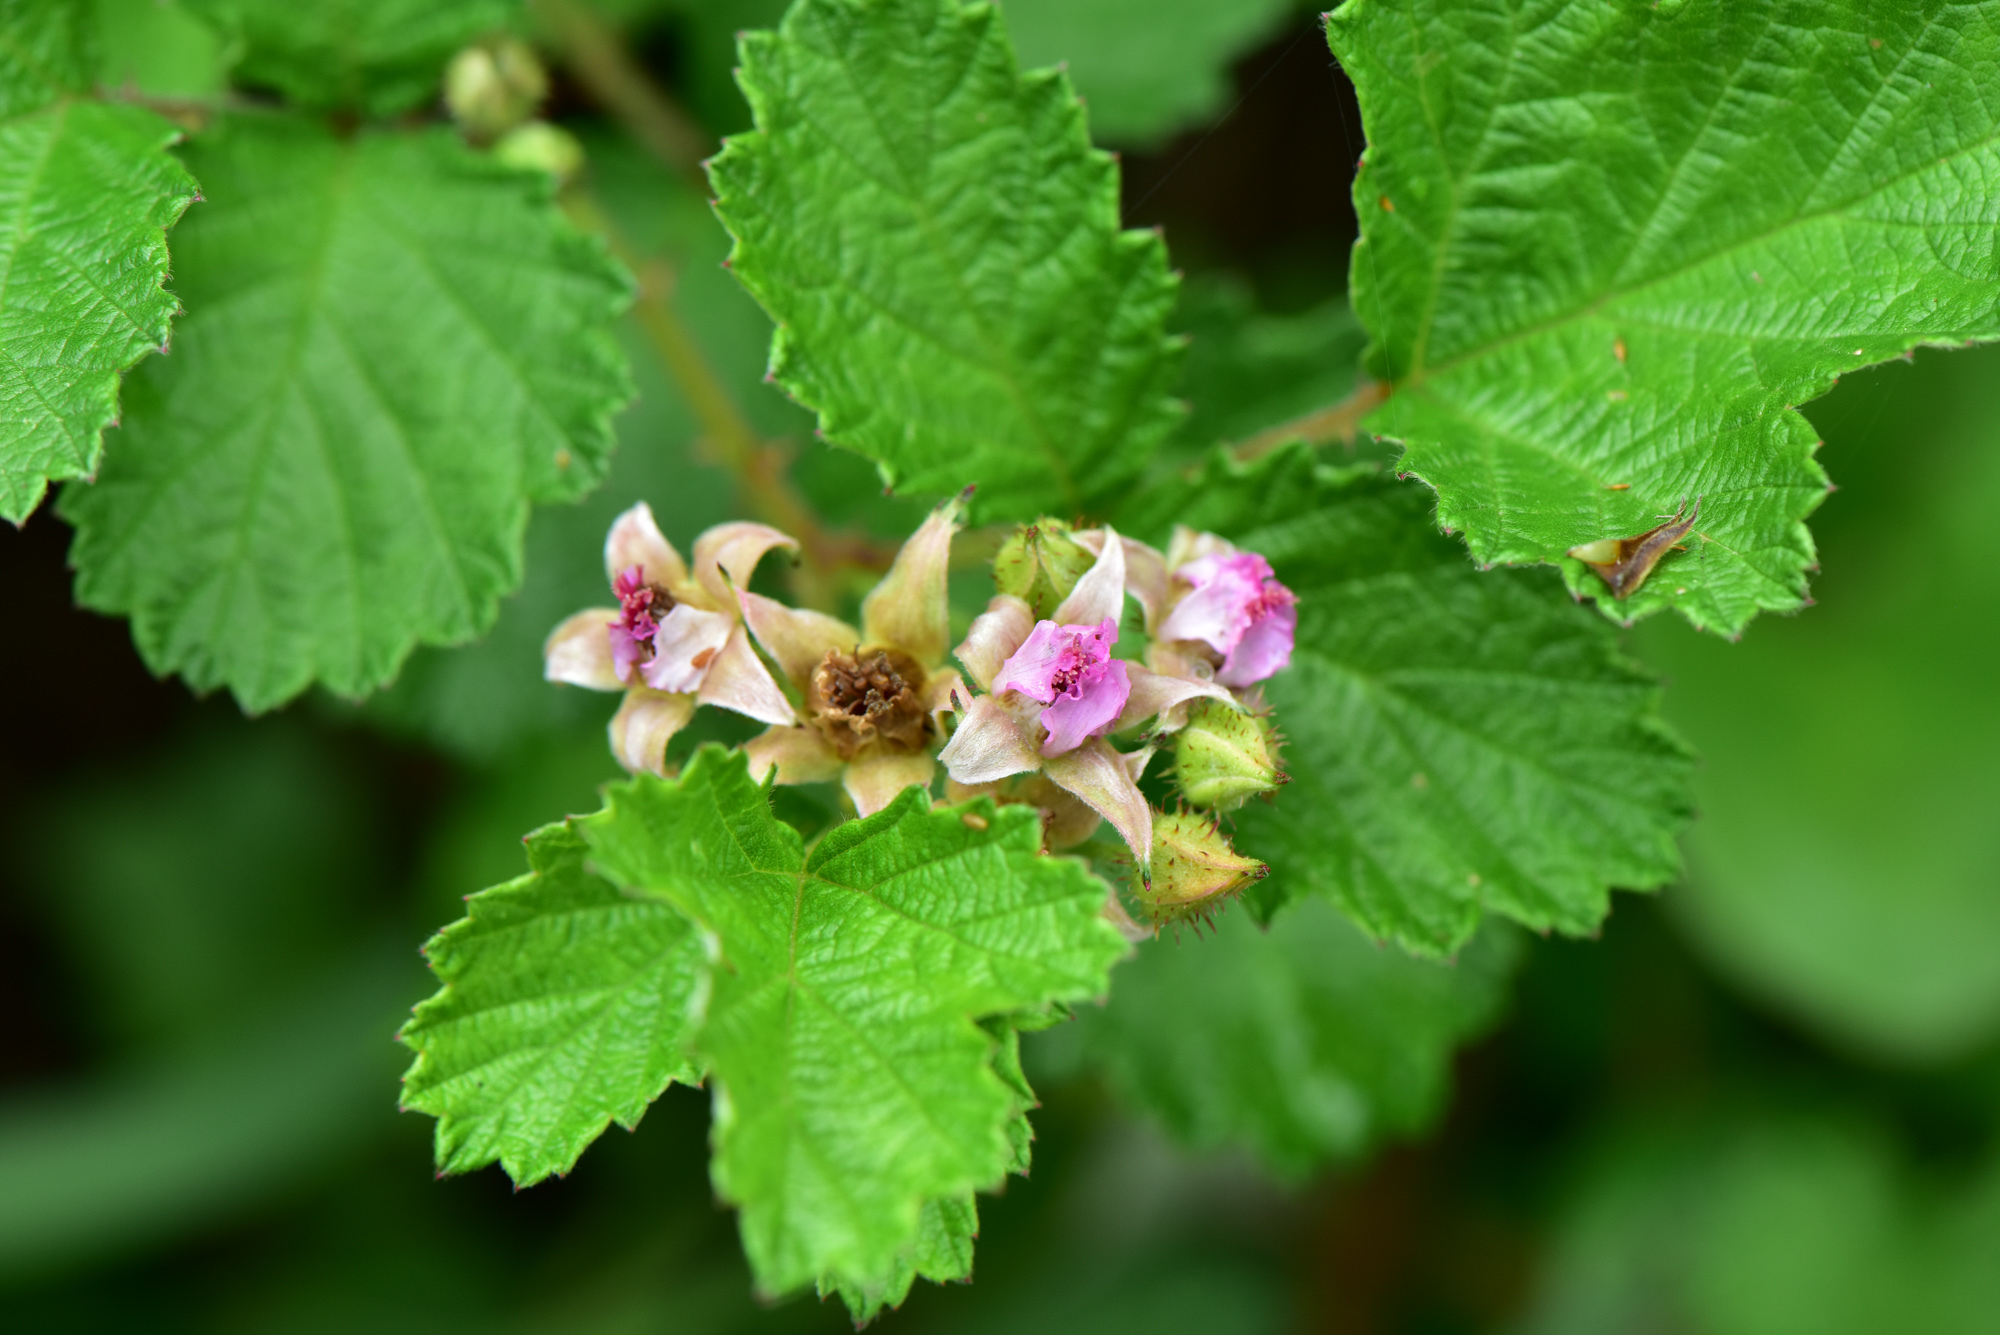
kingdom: Plantae
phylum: Tracheophyta
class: Magnoliopsida
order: Rosales
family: Rosaceae
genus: Rubus
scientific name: Rubus parvifolius
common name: Threeleaf blackberry
